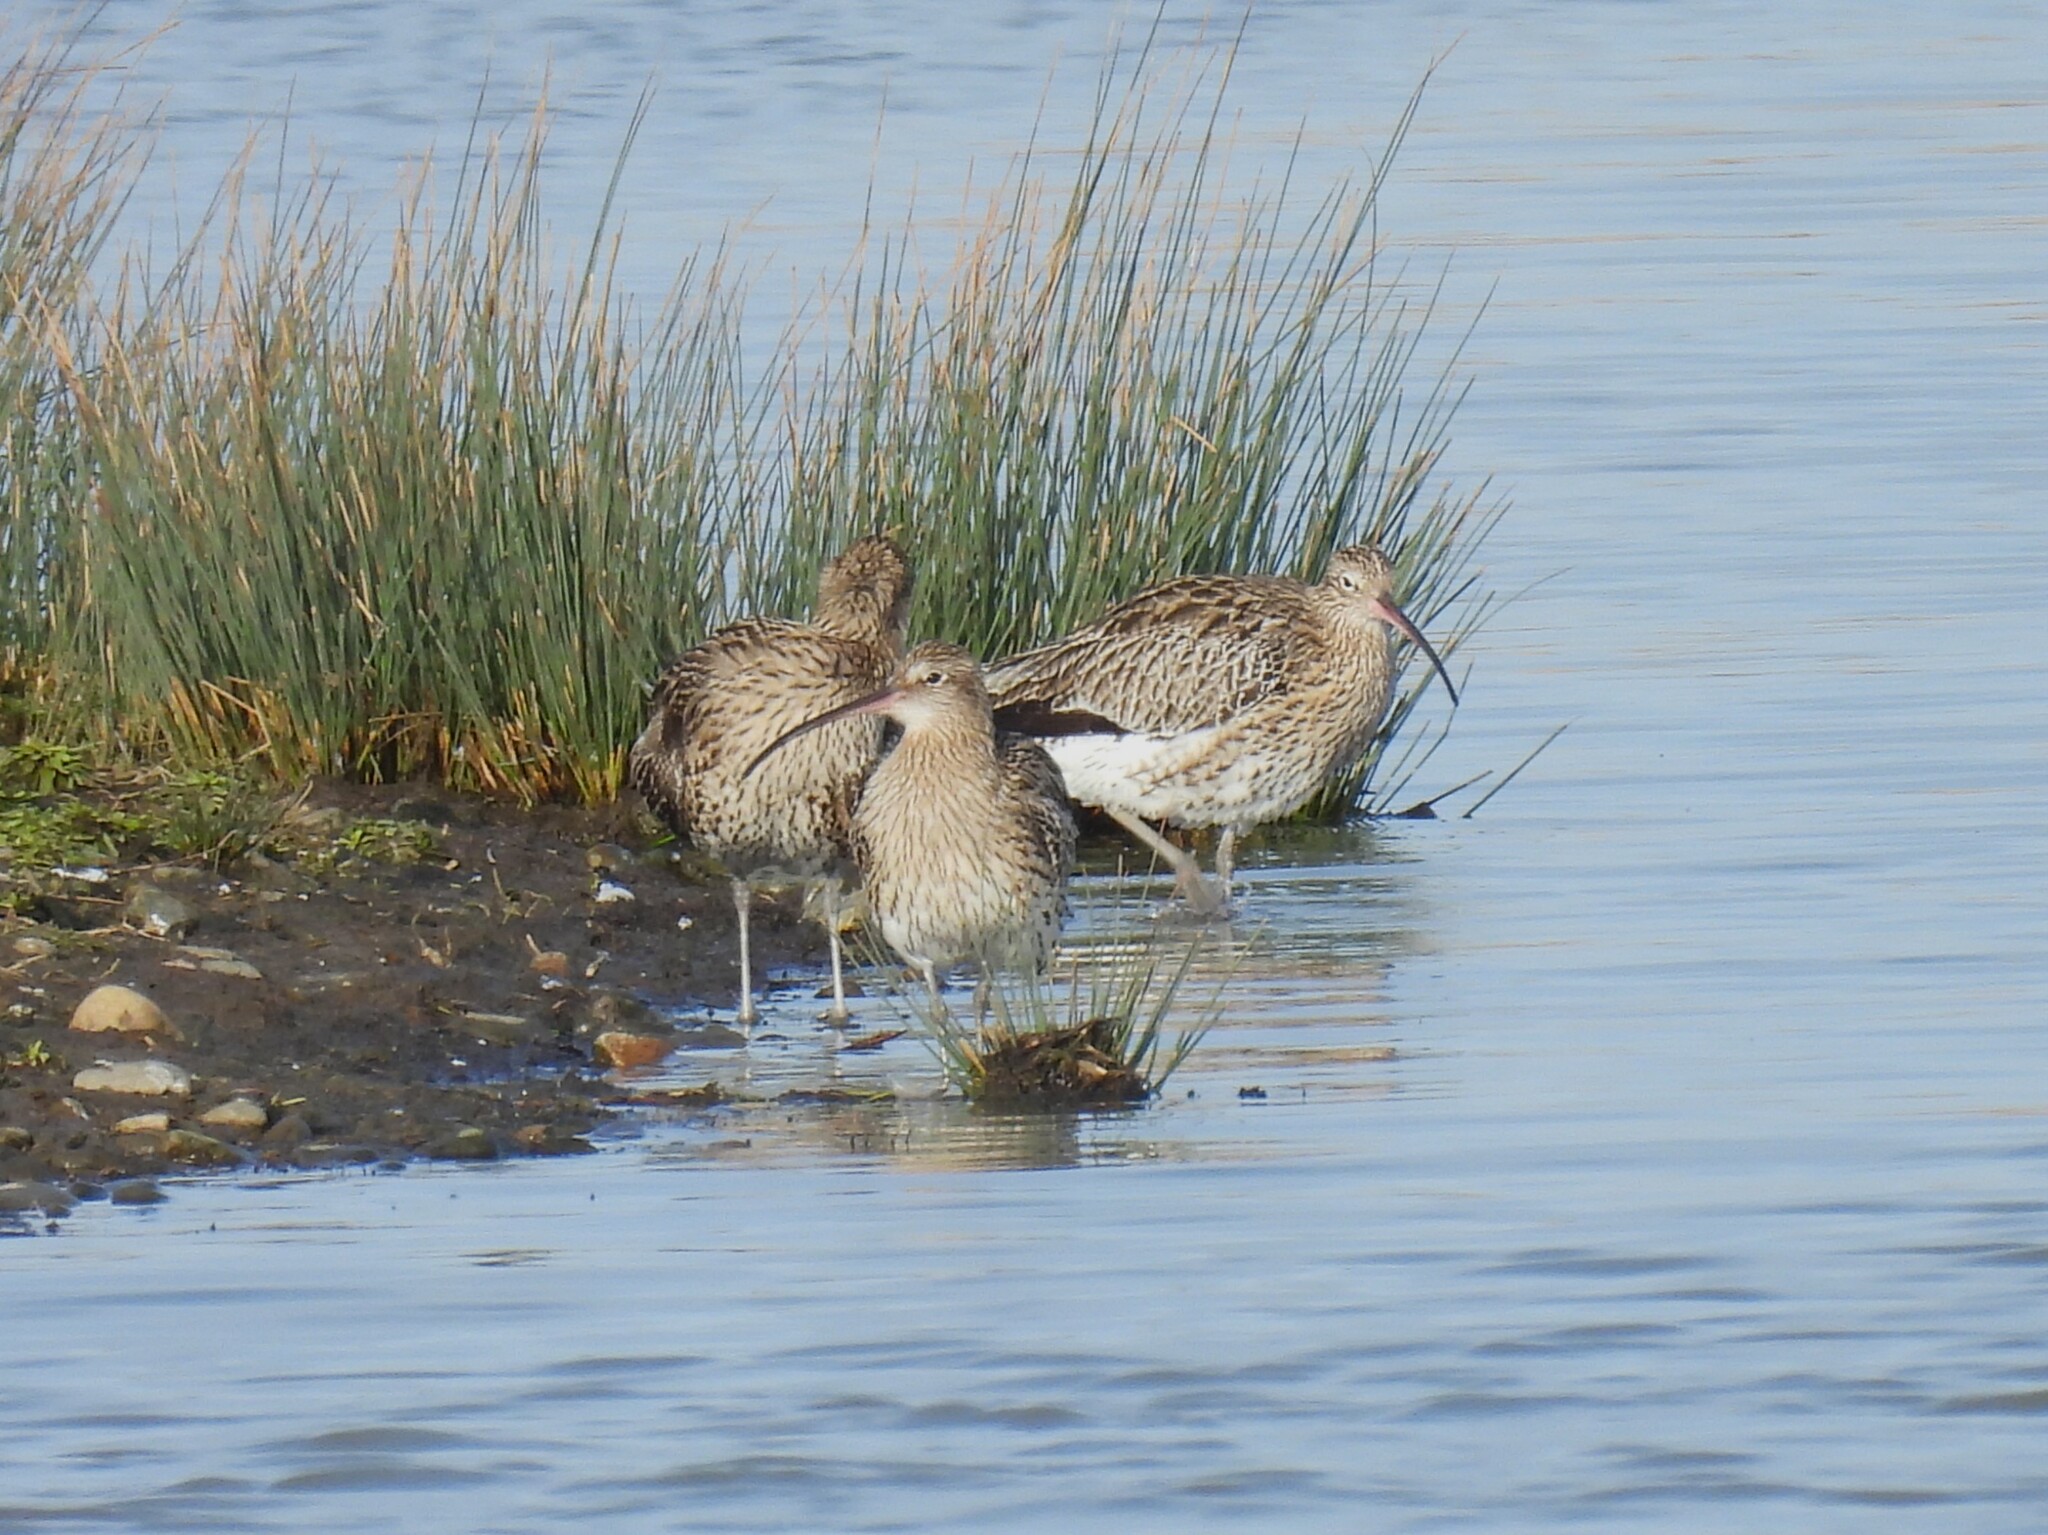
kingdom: Animalia
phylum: Chordata
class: Aves
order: Charadriiformes
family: Scolopacidae
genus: Numenius
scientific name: Numenius arquata
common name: Eurasian curlew
